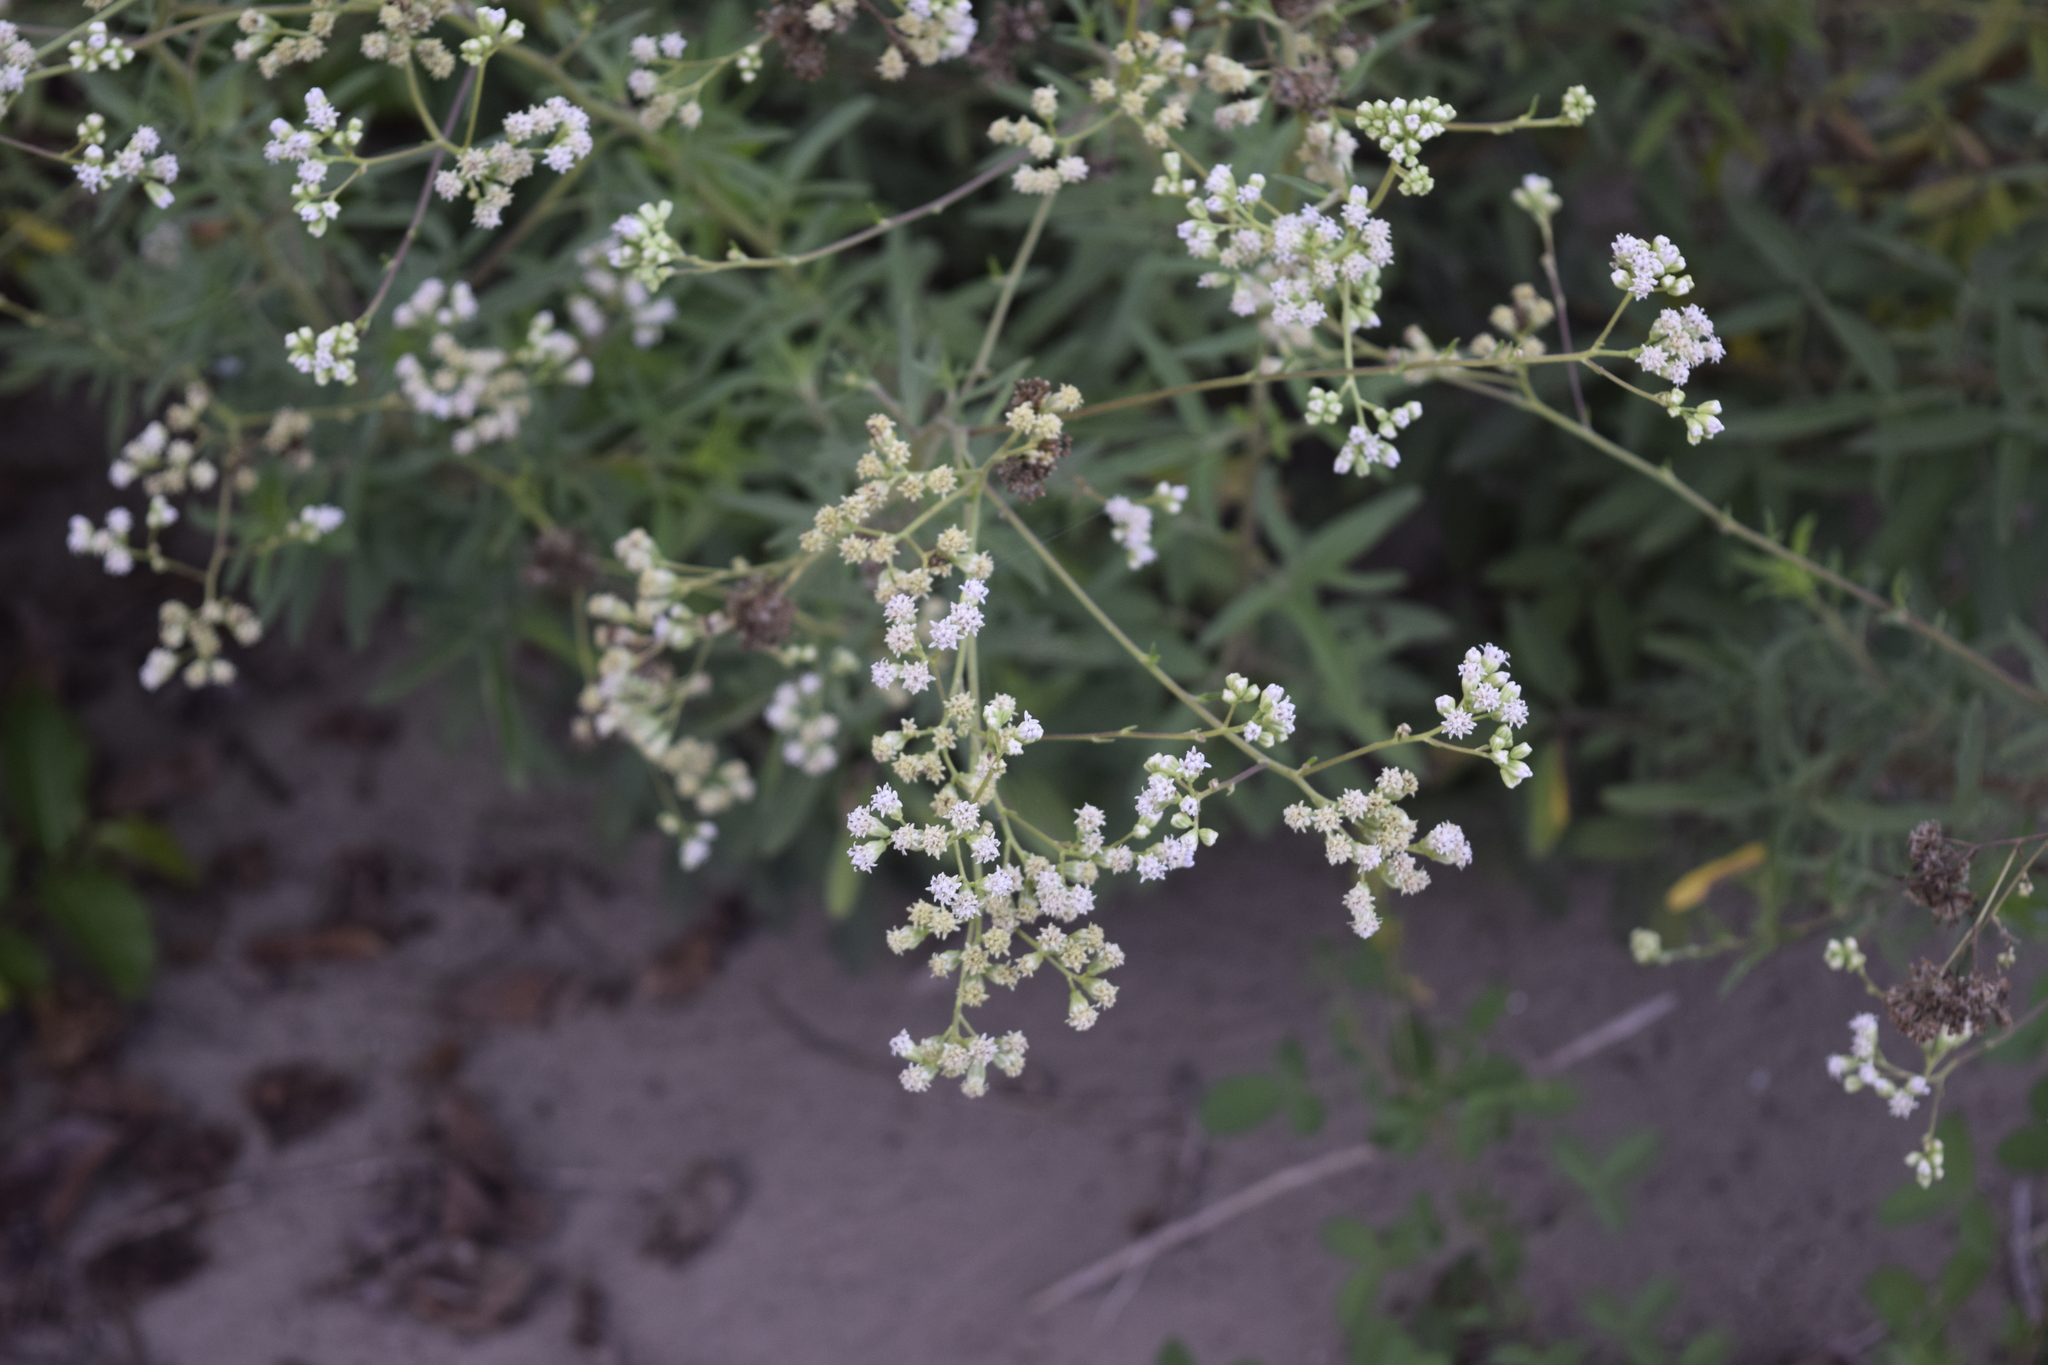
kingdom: Plantae
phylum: Tracheophyta
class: Magnoliopsida
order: Asterales
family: Asteraceae
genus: Florestina
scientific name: Florestina liebmannii
